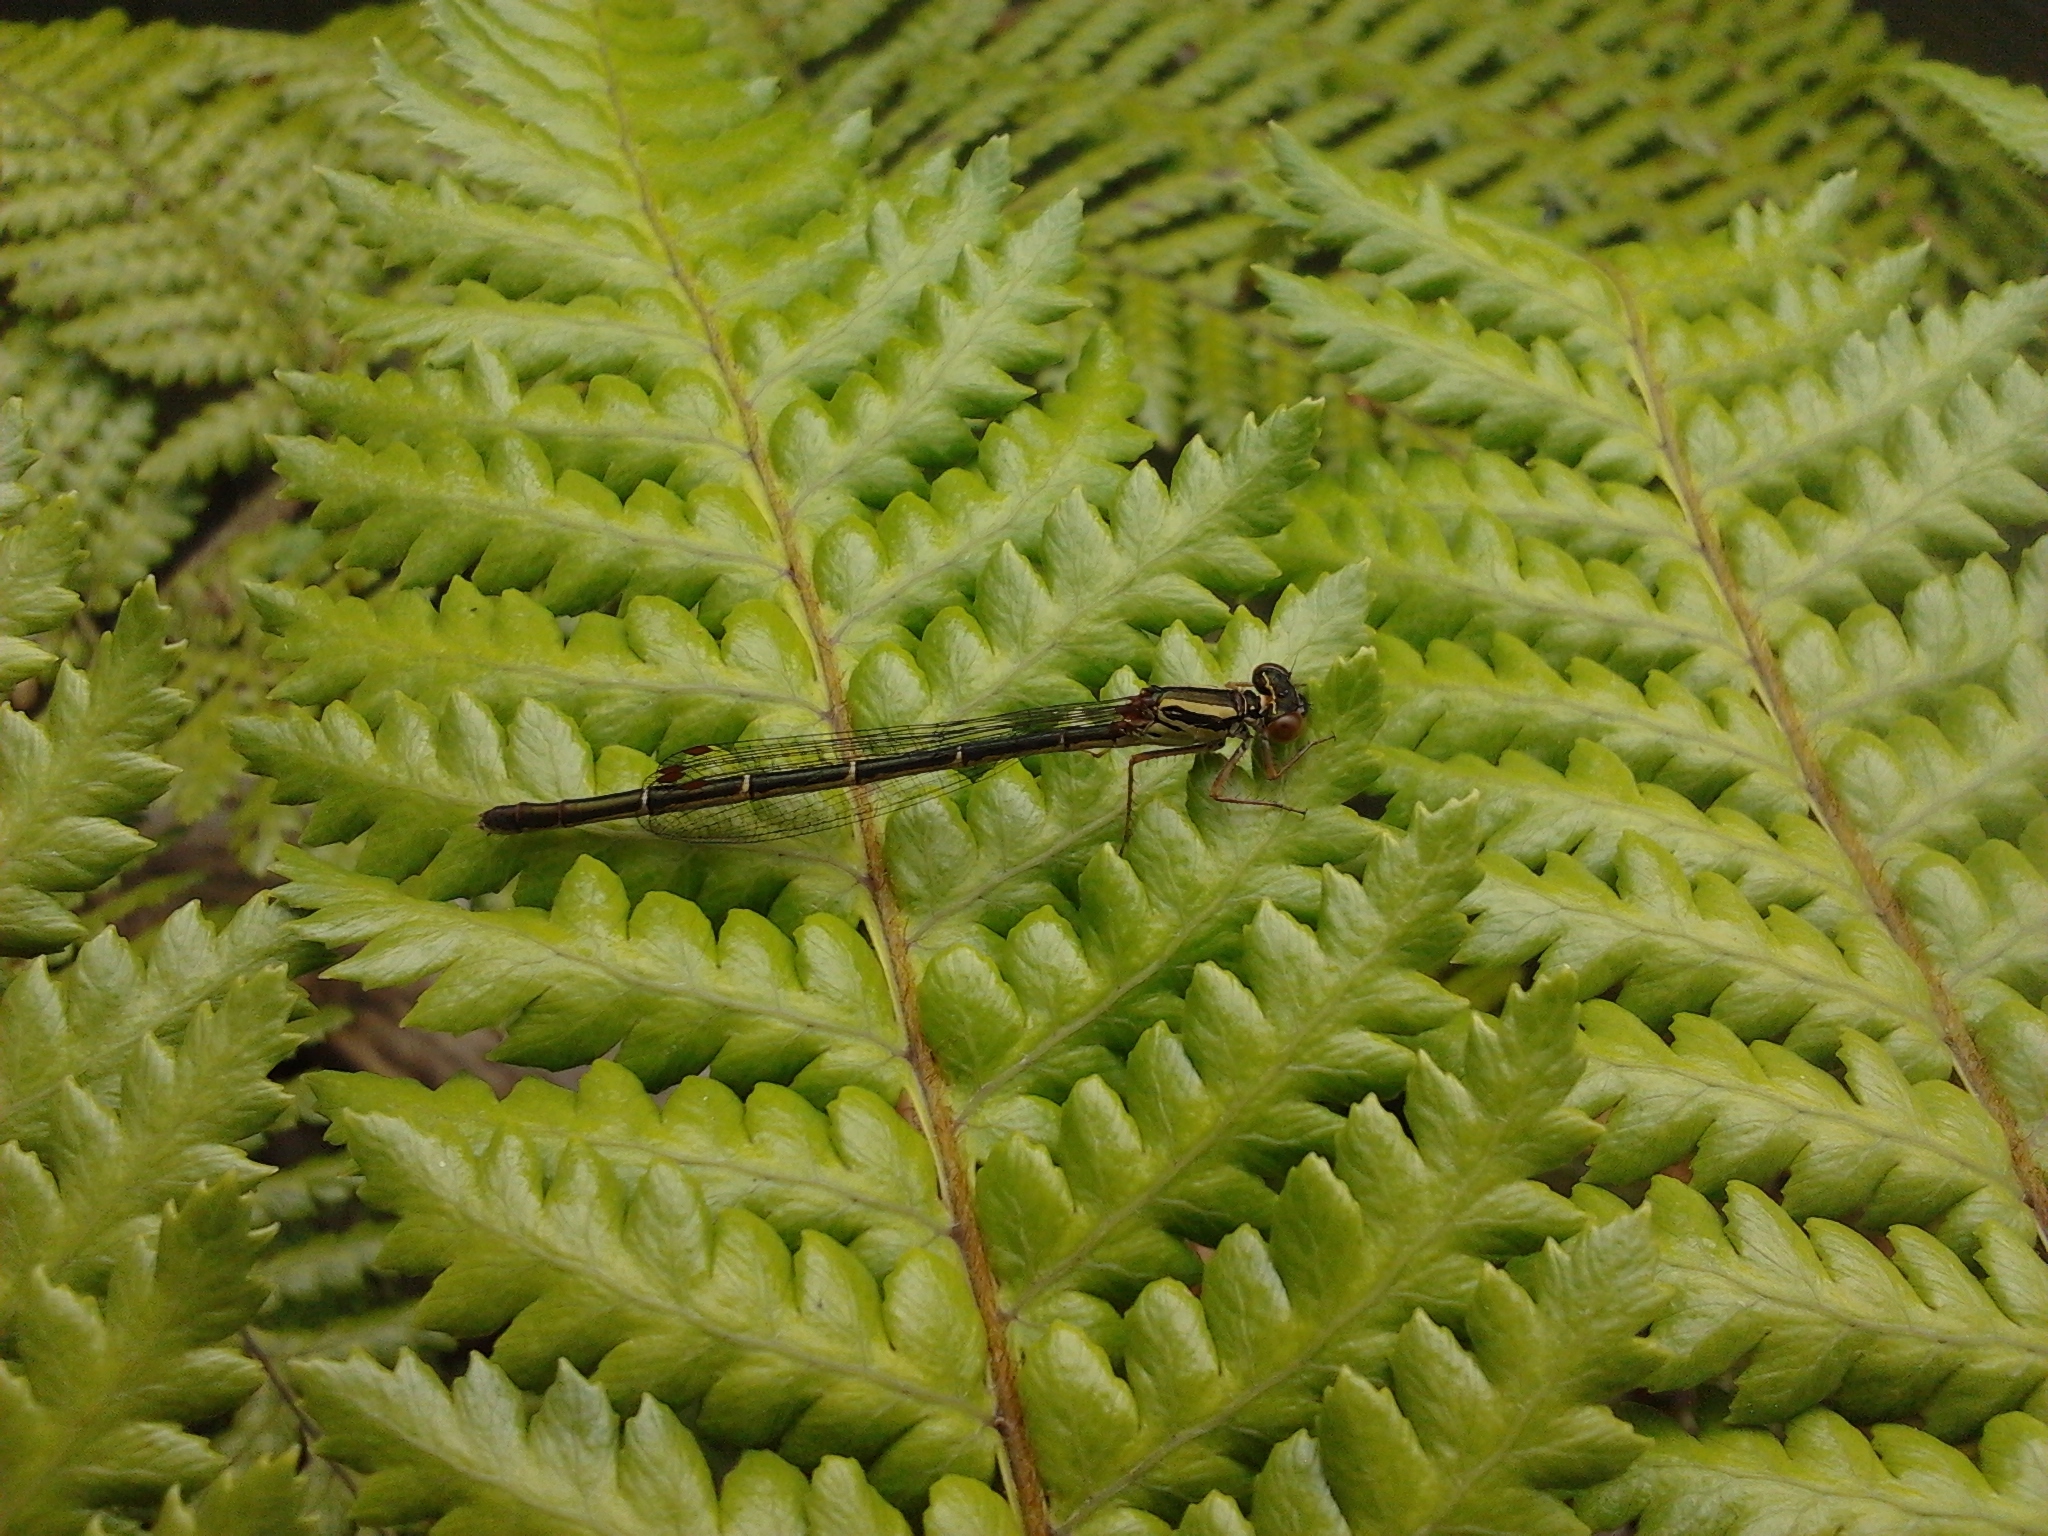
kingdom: Animalia
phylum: Arthropoda
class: Insecta
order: Odonata
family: Coenagrionidae
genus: Xanthocnemis
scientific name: Xanthocnemis zealandica
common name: Common redcoat damselfly
